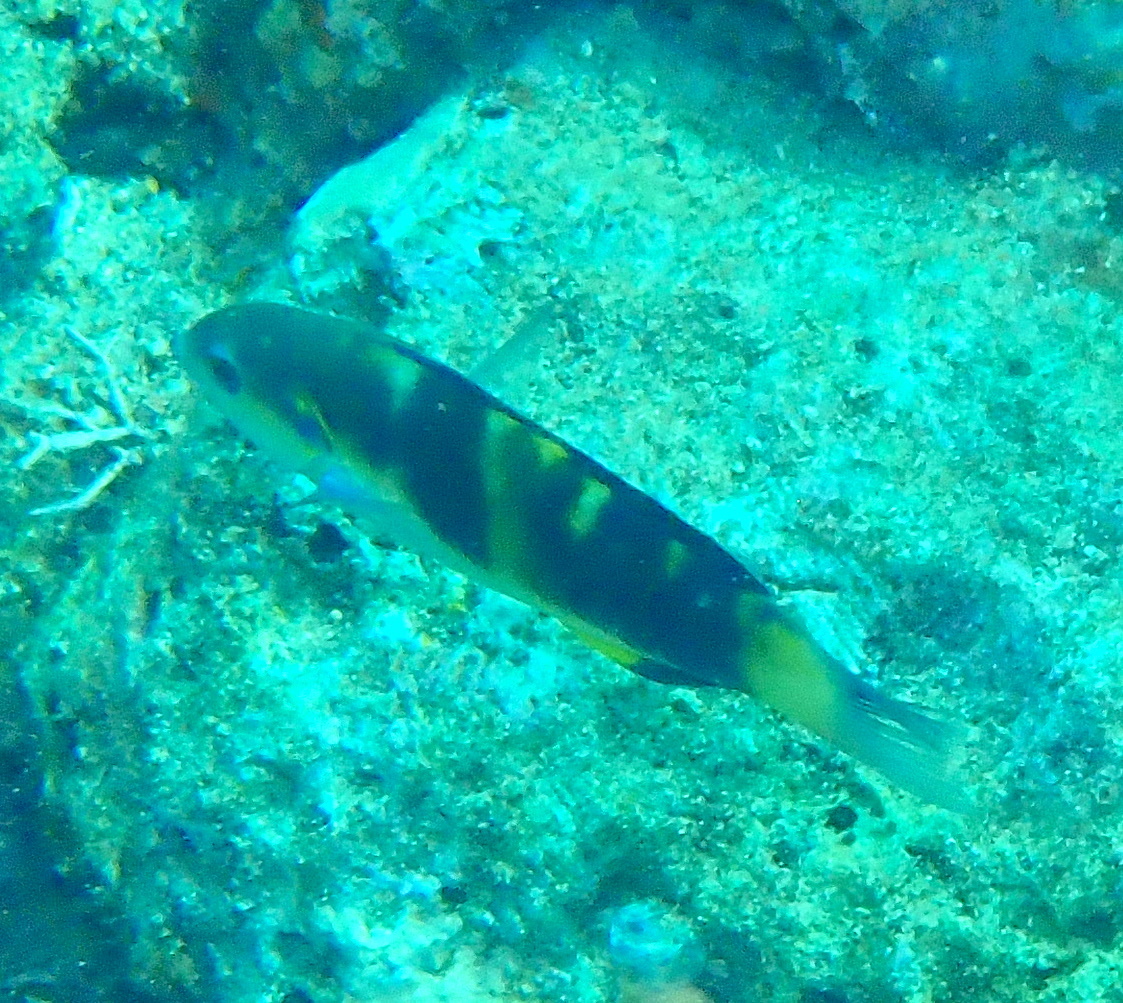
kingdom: Animalia
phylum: Chordata
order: Perciformes
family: Labridae
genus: Thalassoma
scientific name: Thalassoma jansenii
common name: Jansen's wrasse
